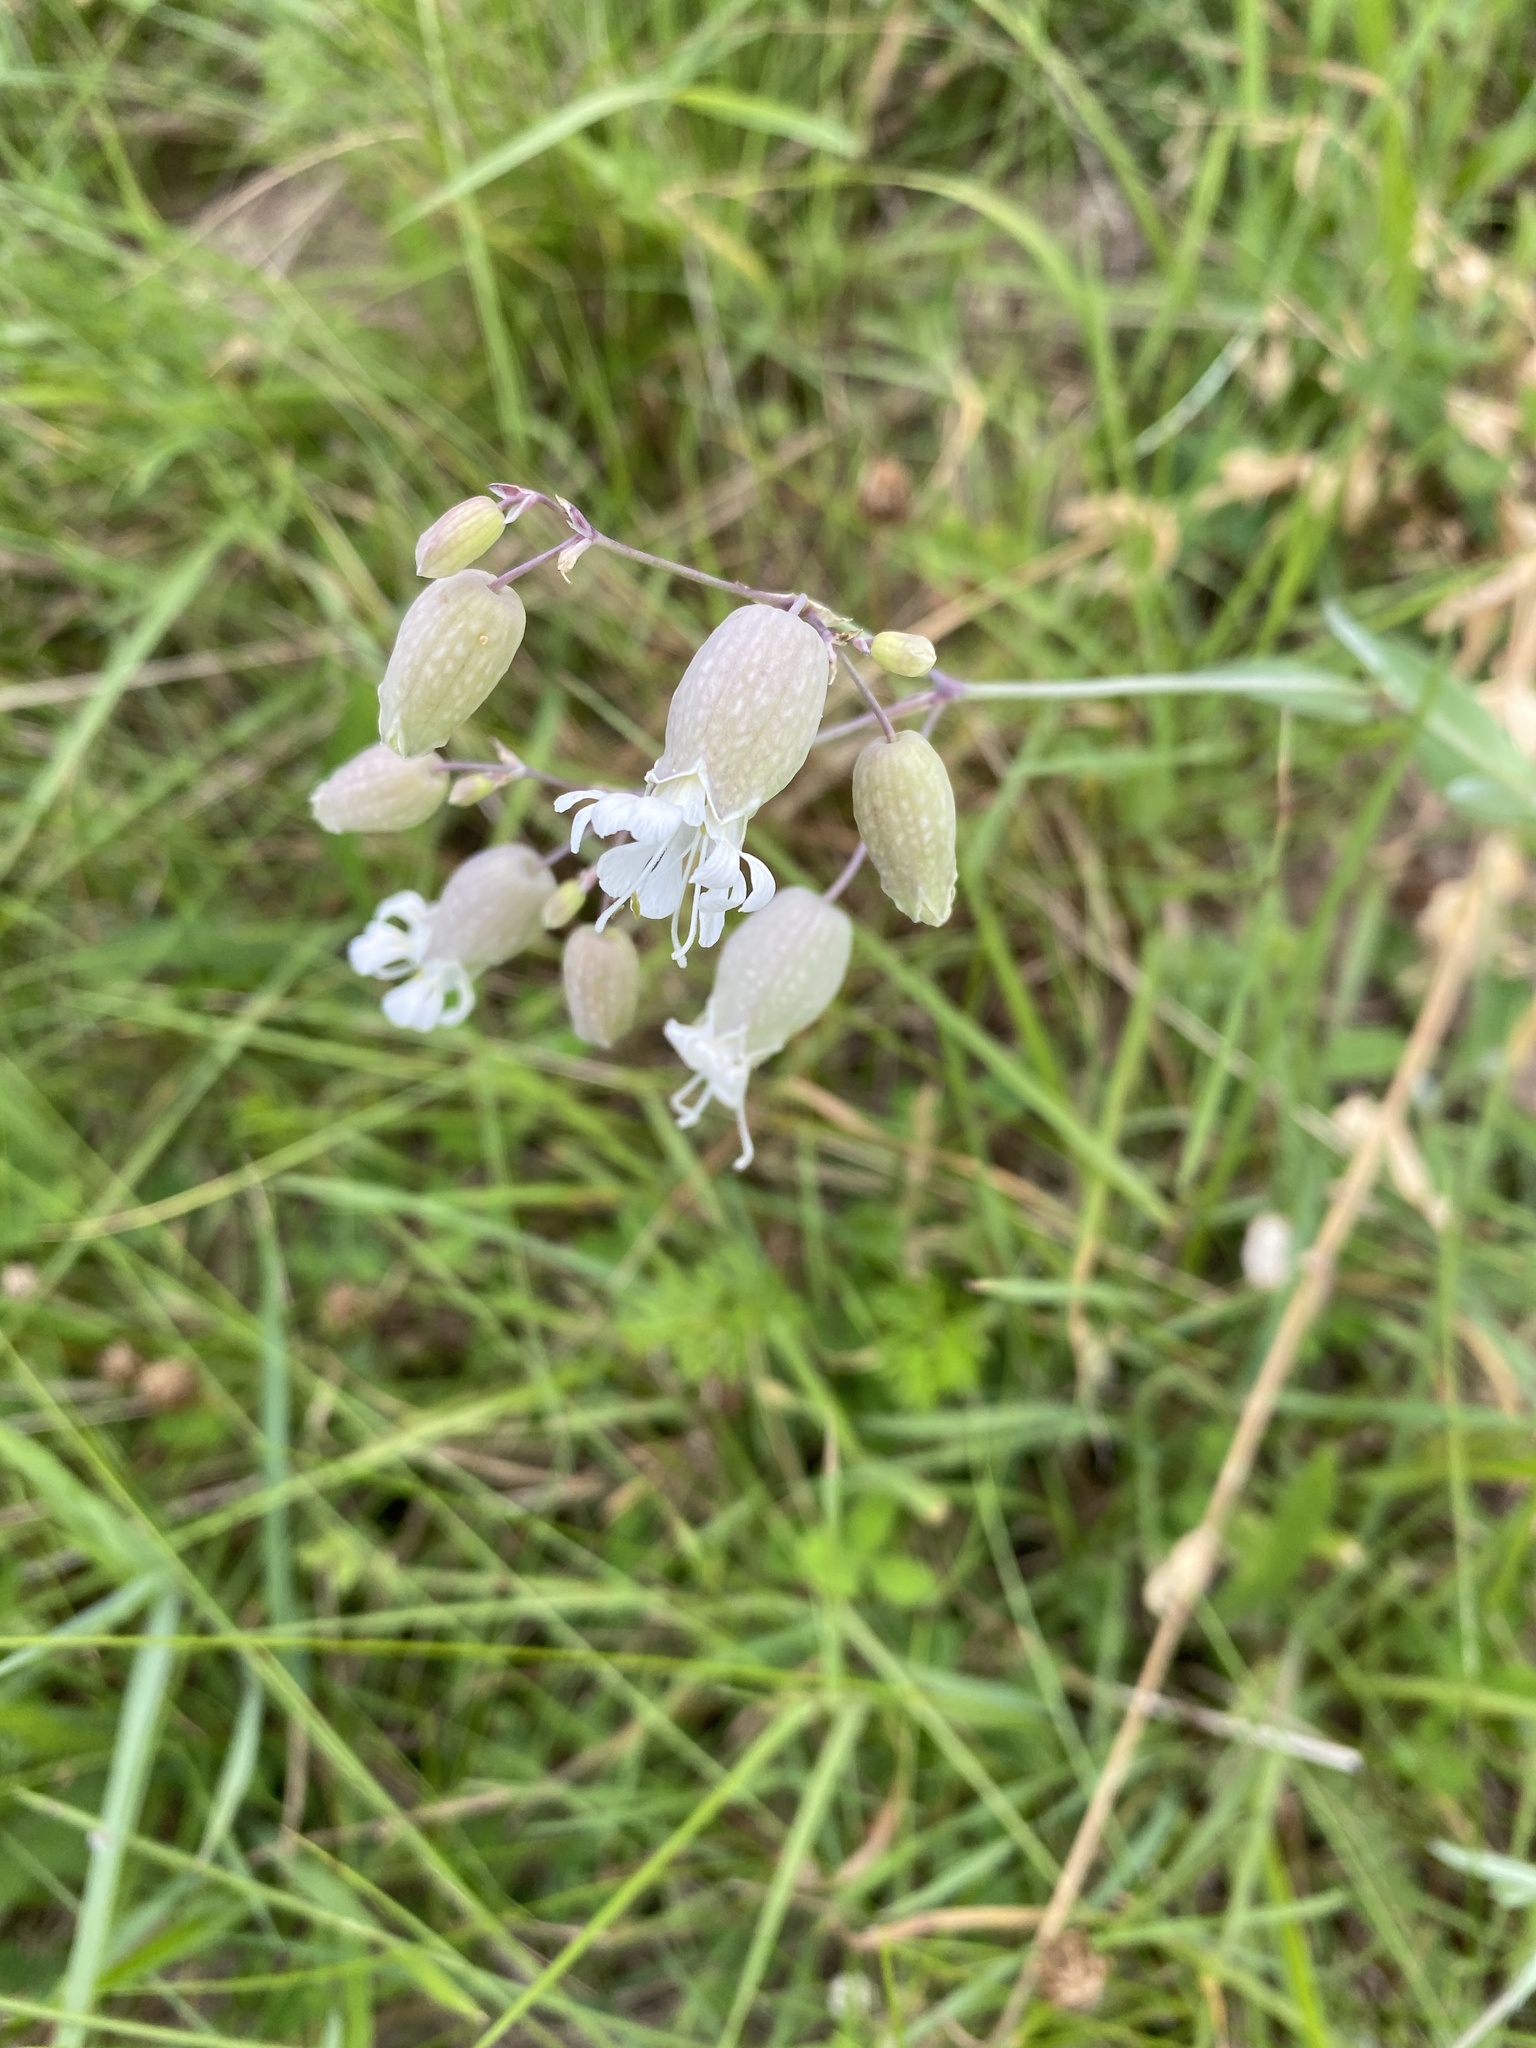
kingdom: Plantae
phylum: Tracheophyta
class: Magnoliopsida
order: Caryophyllales
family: Caryophyllaceae
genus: Silene
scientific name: Silene vulgaris
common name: Bladder campion
